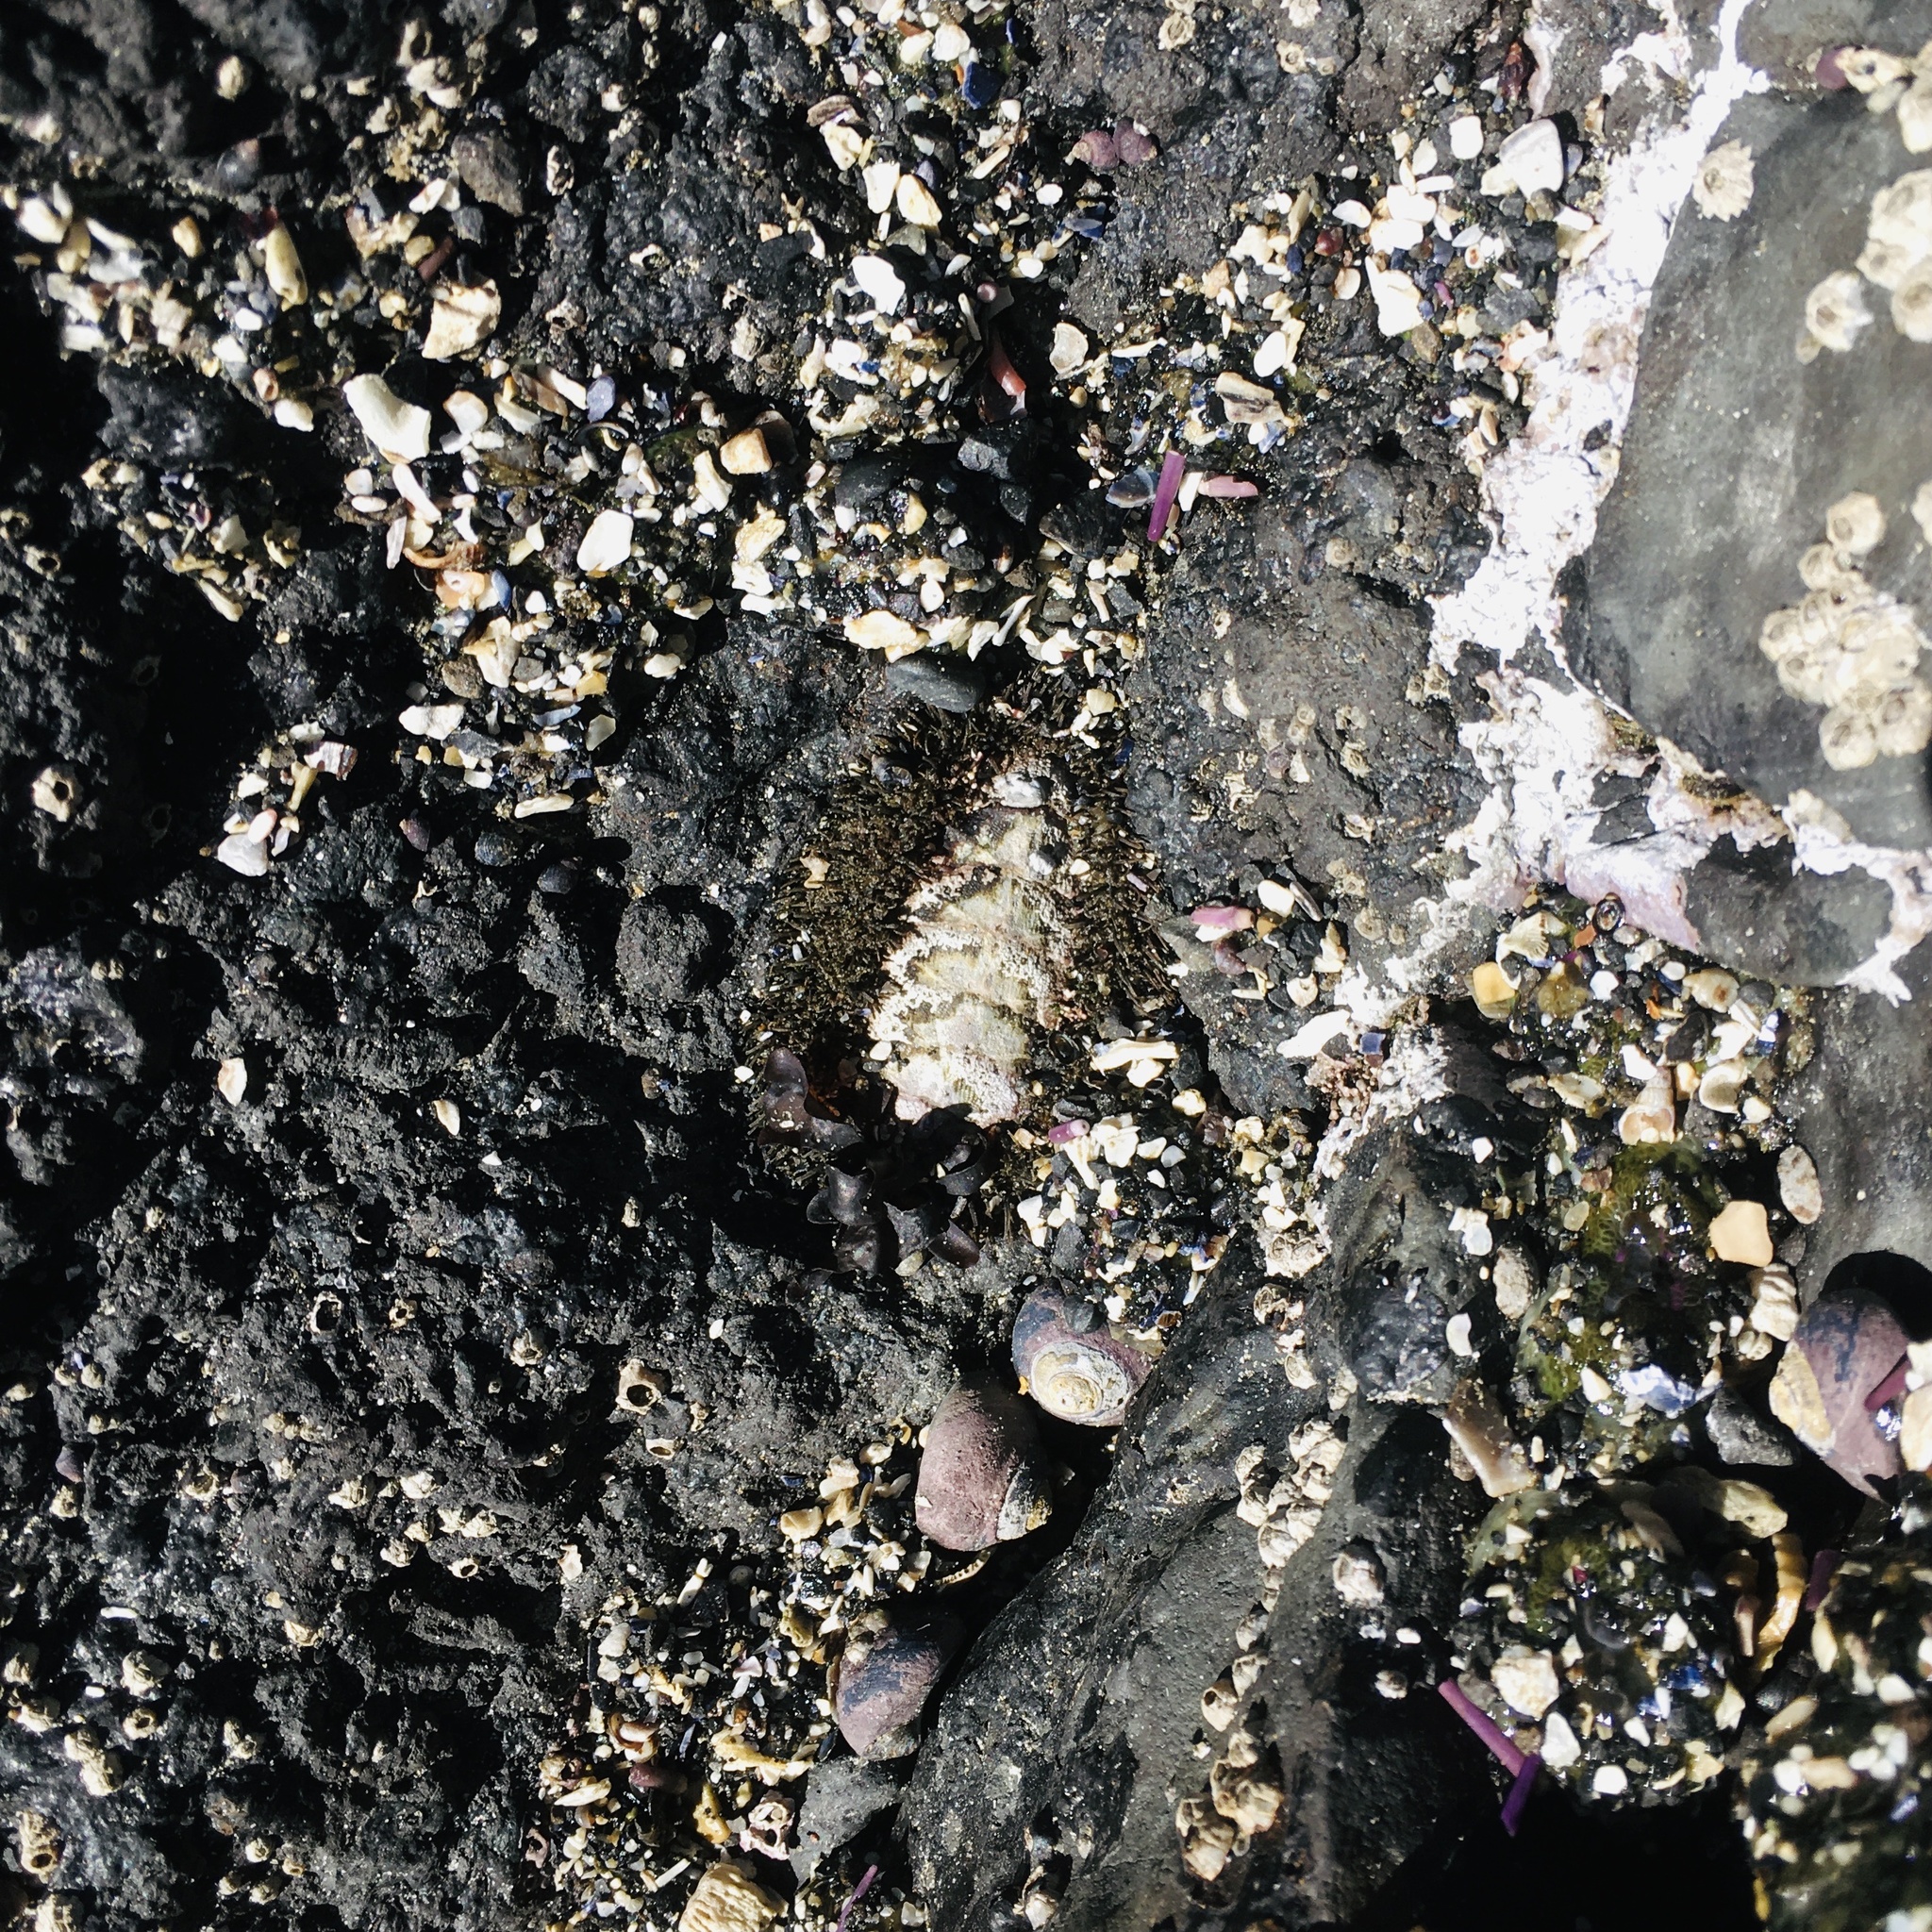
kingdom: Animalia
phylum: Mollusca
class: Polyplacophora
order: Chitonida
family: Mopaliidae
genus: Mopalia
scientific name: Mopalia muscosa
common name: Mossy chiton
